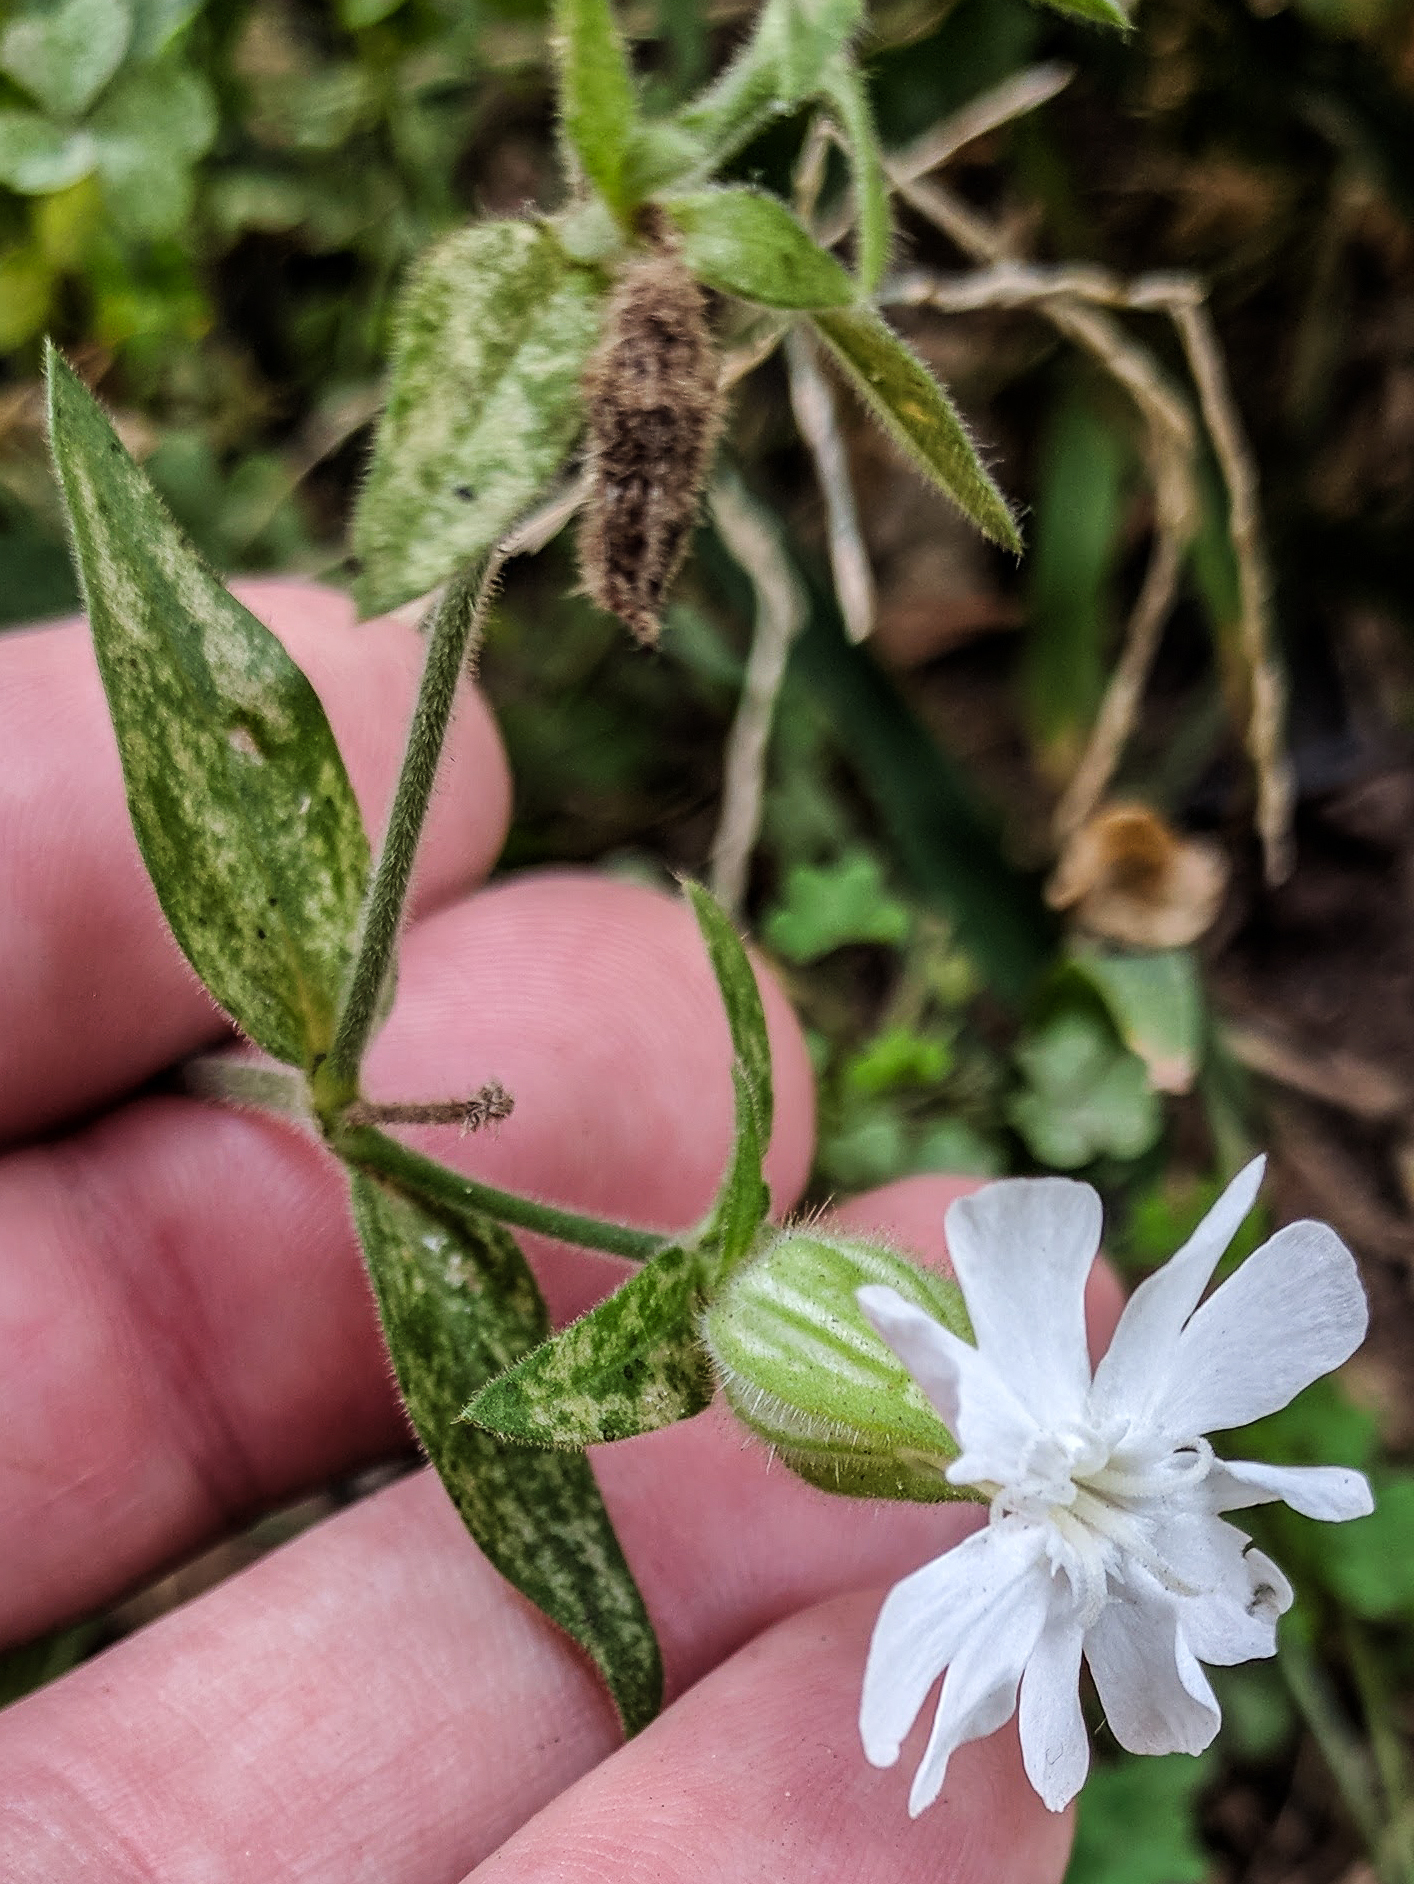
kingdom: Plantae
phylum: Tracheophyta
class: Magnoliopsida
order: Caryophyllales
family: Caryophyllaceae
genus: Silene
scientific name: Silene latifolia
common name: White campion
